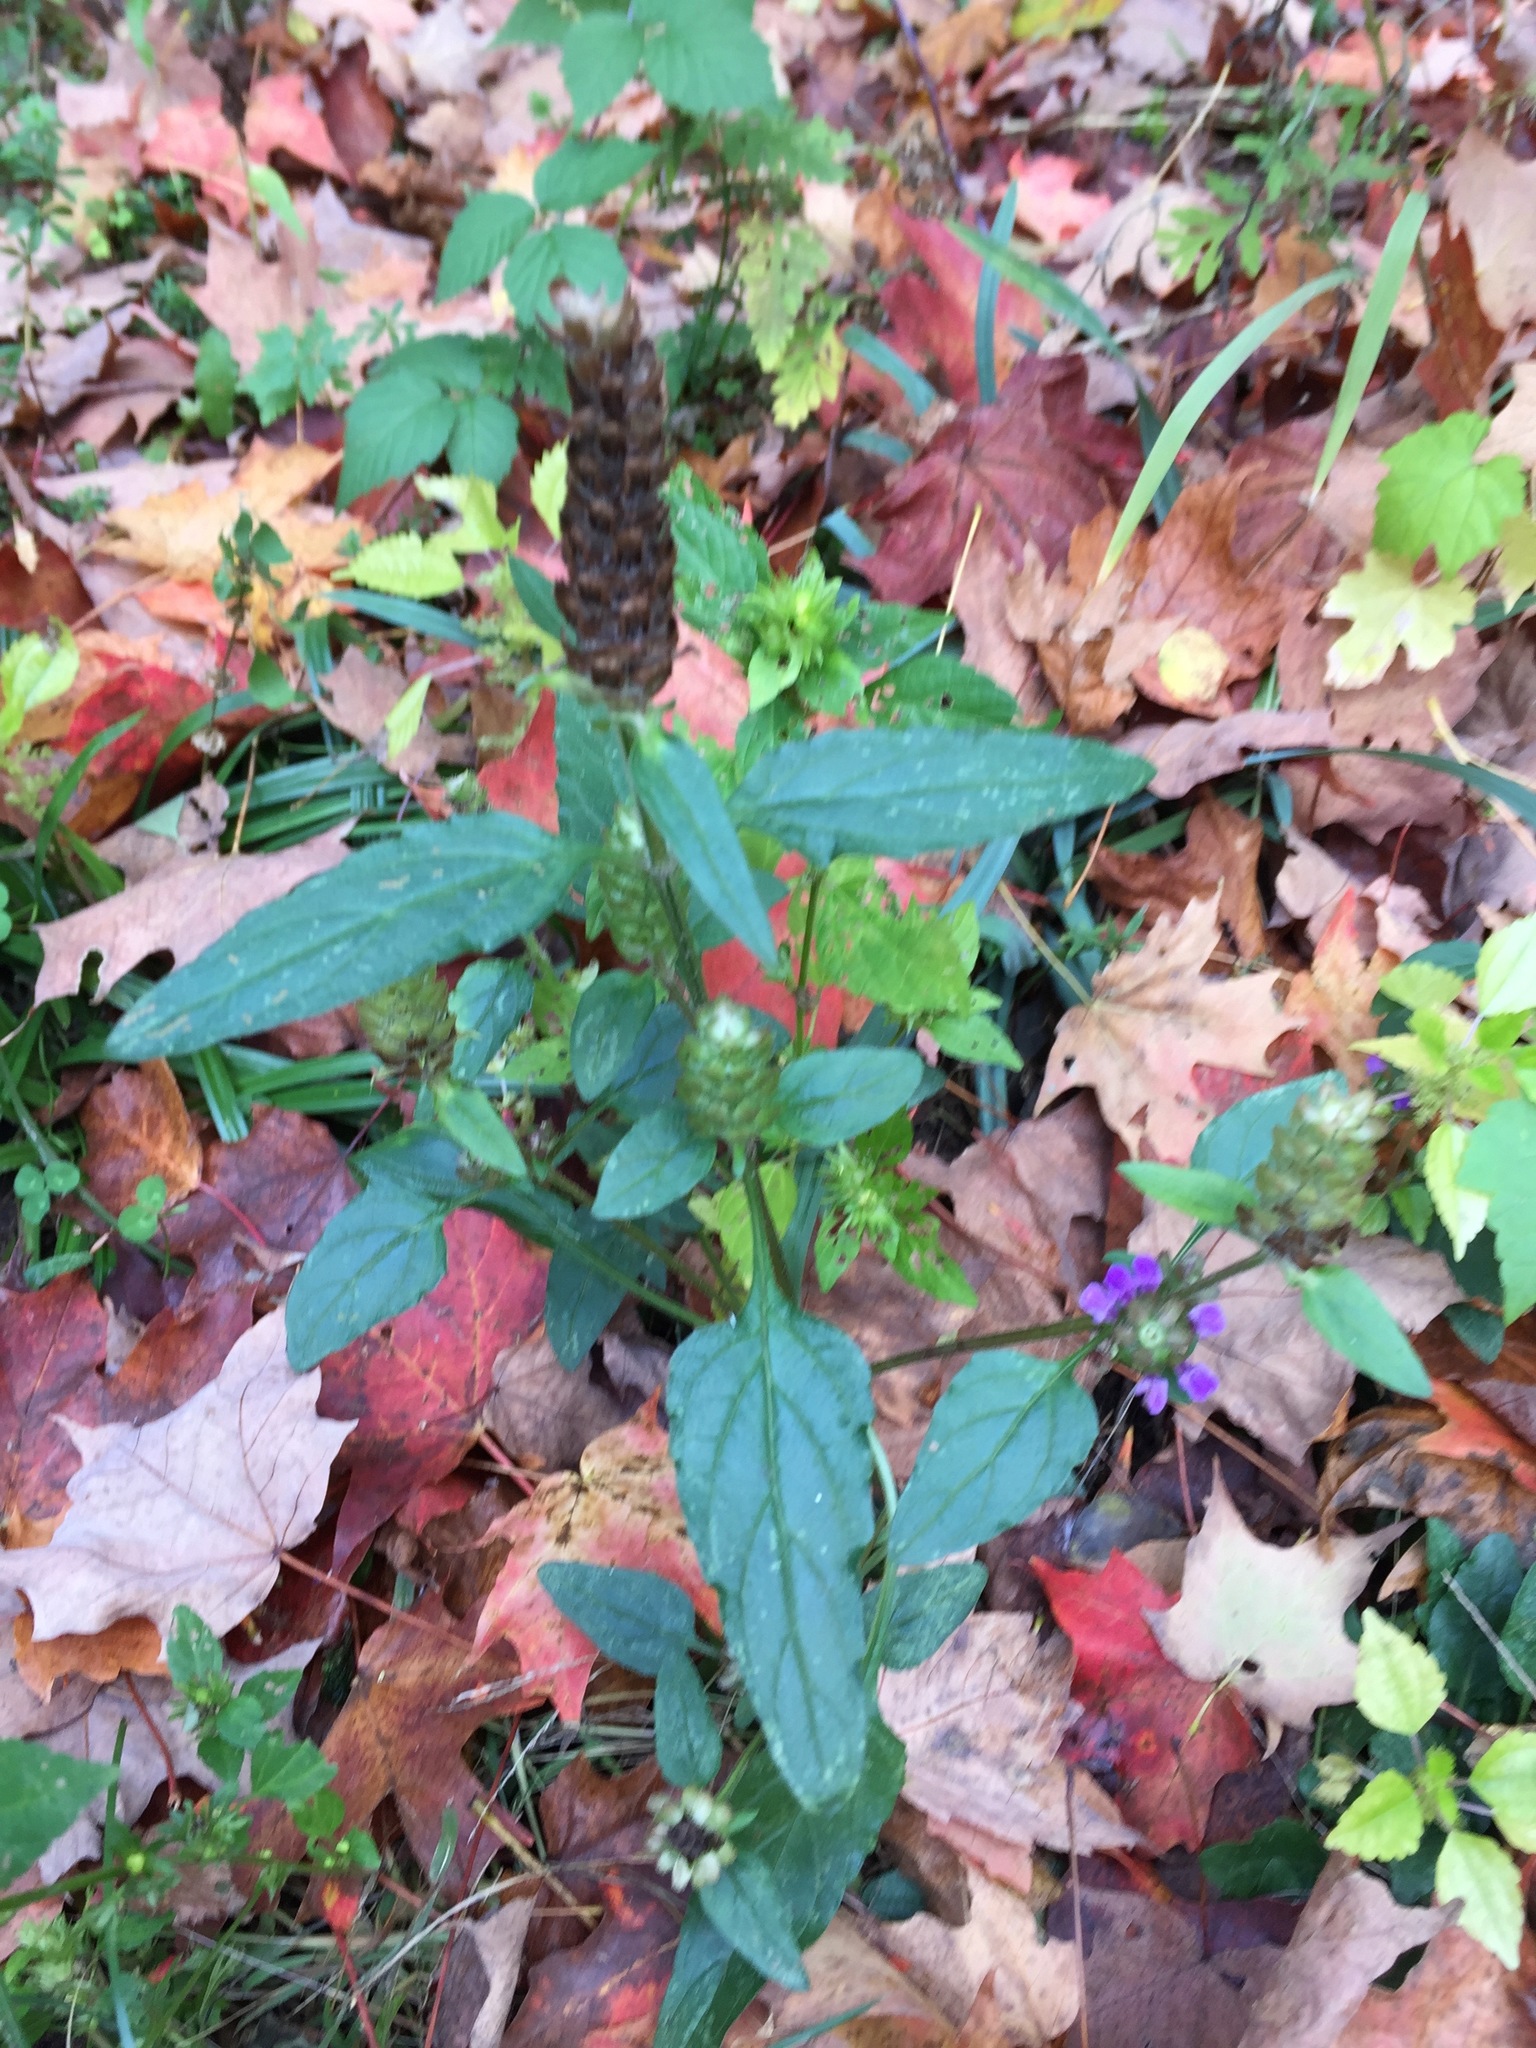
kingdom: Plantae
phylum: Tracheophyta
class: Magnoliopsida
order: Lamiales
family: Lamiaceae
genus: Prunella
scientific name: Prunella vulgaris
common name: Heal-all
